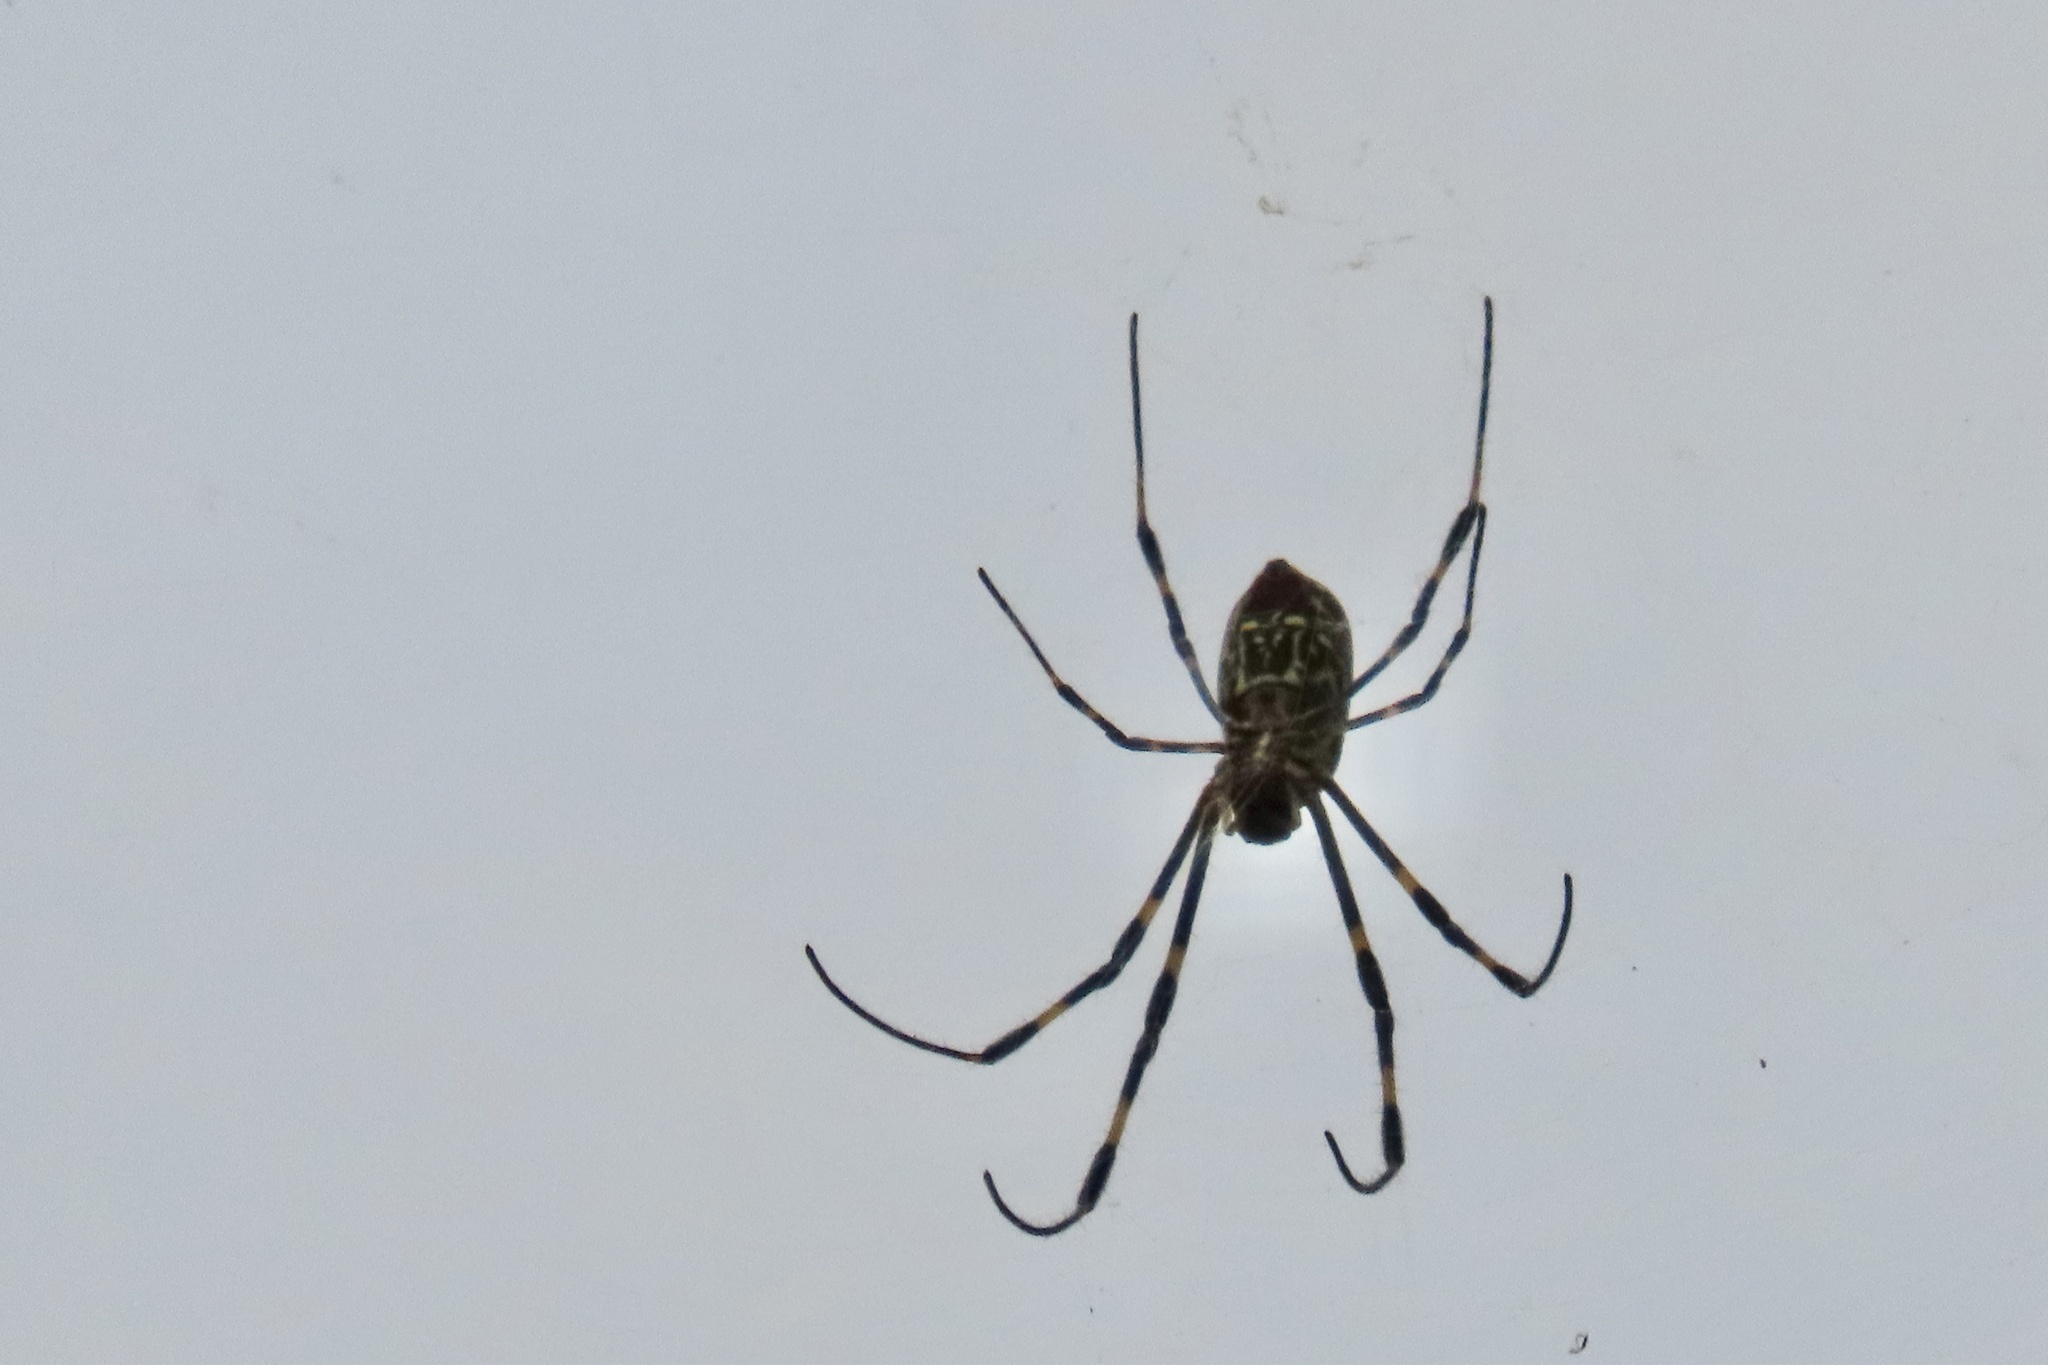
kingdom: Animalia
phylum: Arthropoda
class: Arachnida
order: Araneae
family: Araneidae
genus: Trichonephila
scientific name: Trichonephila clavata
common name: Jorō spider
